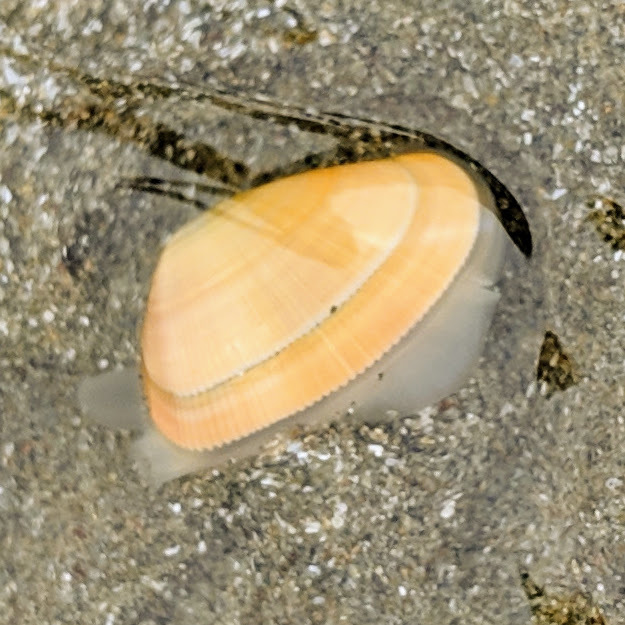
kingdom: Animalia
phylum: Mollusca
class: Bivalvia
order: Cardiida
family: Donacidae
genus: Donax
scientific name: Donax gouldii
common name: Gould beanclam
